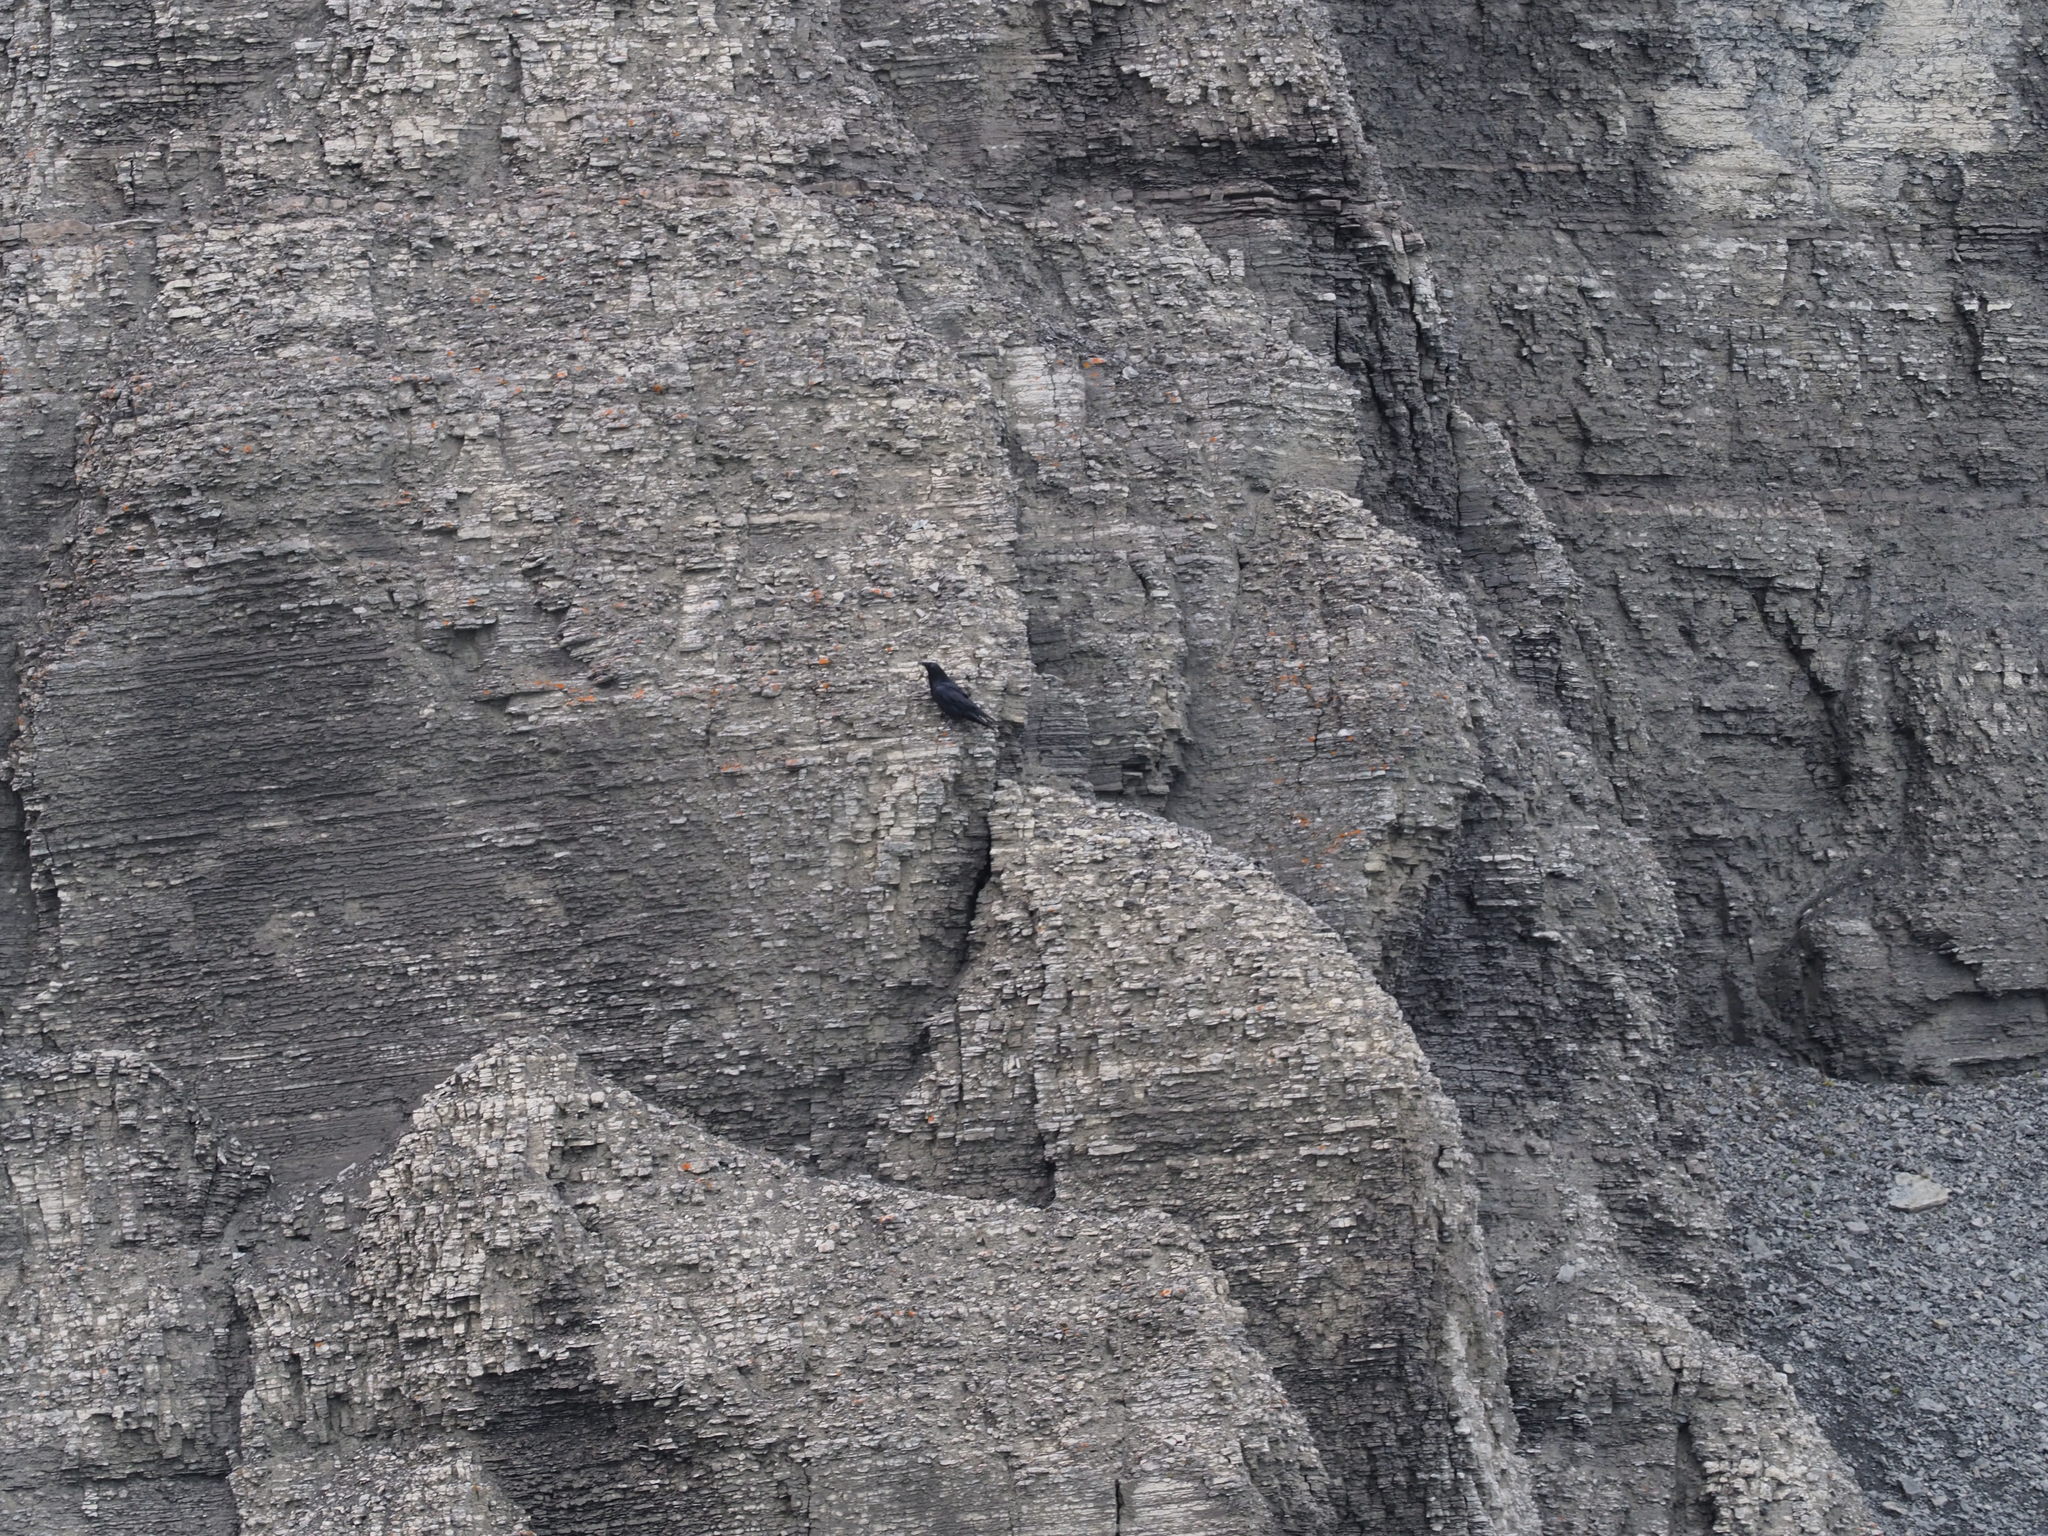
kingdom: Animalia
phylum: Chordata
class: Aves
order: Passeriformes
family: Corvidae
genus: Corvus
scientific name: Corvus corax
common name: Common raven
